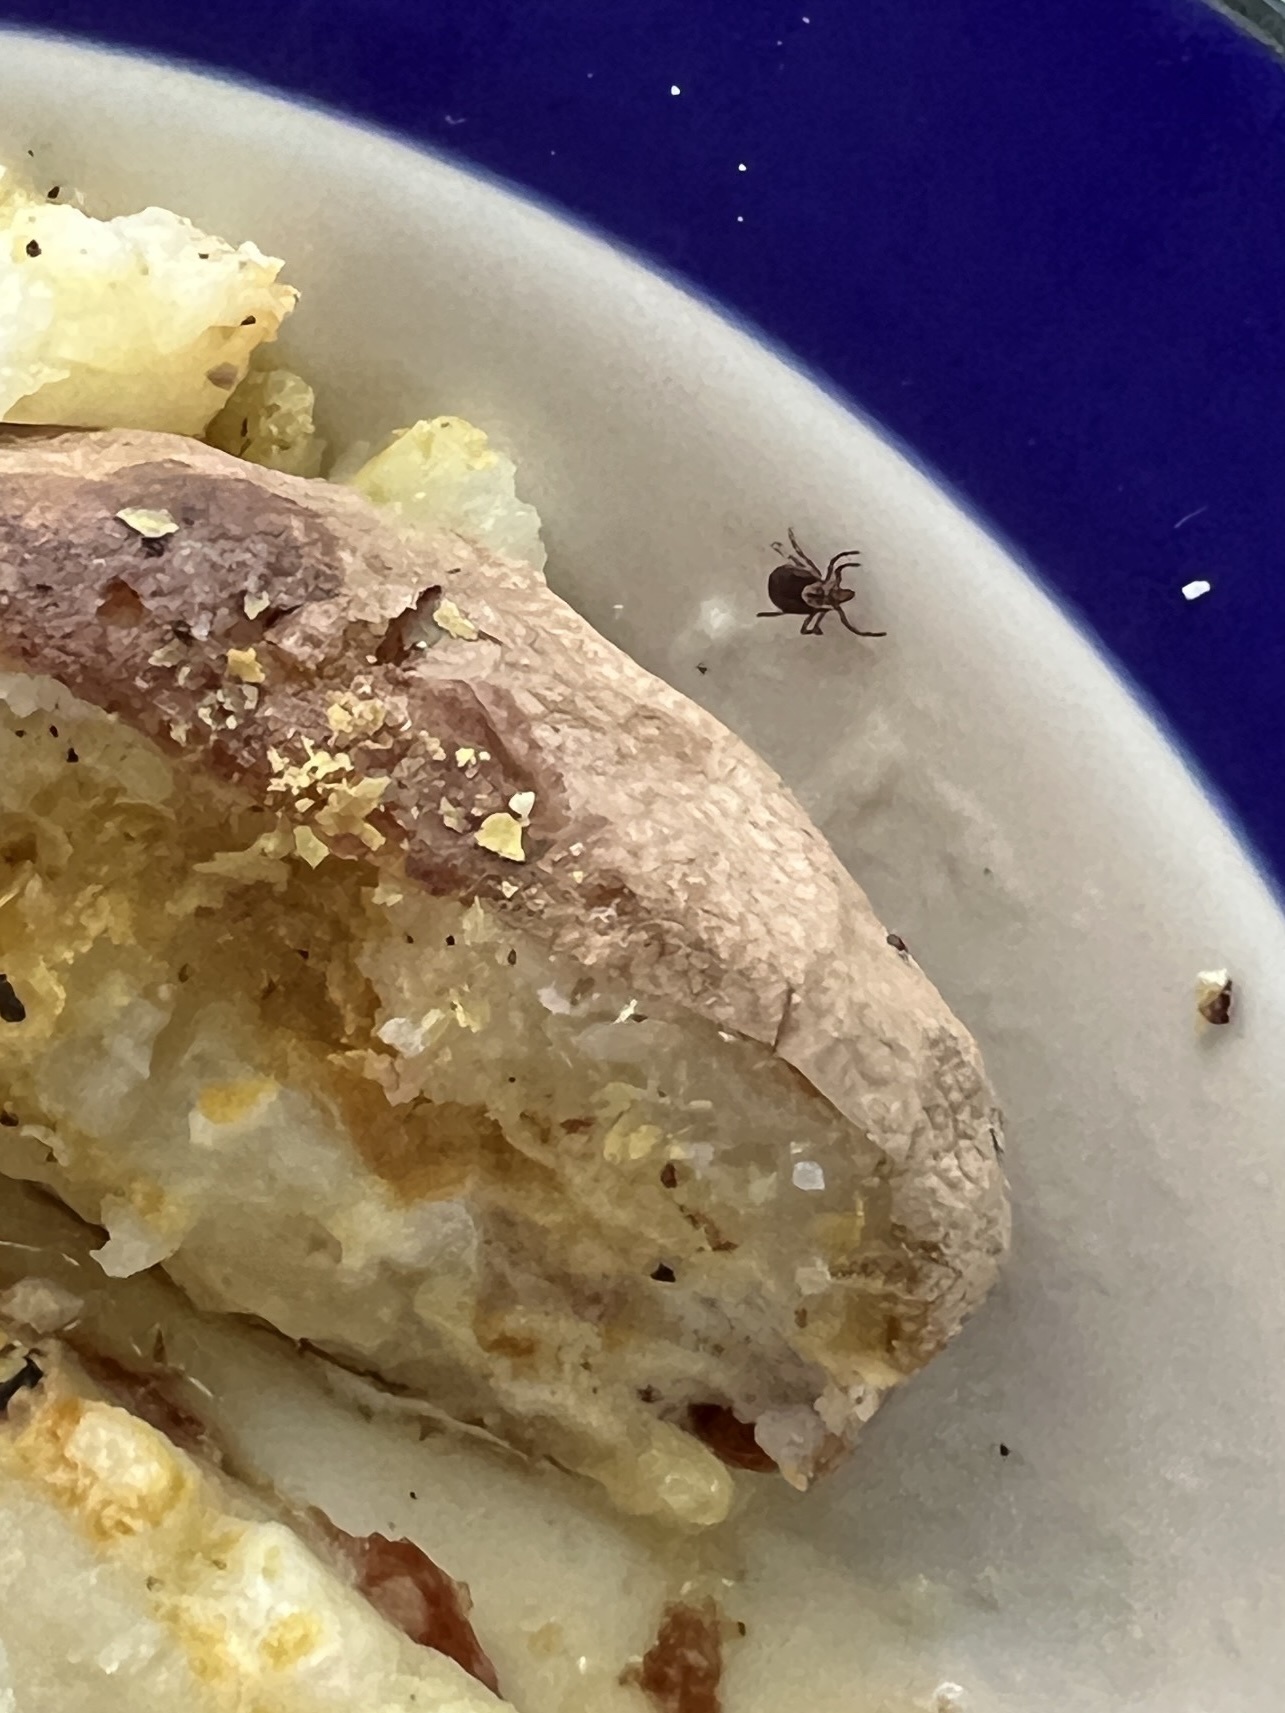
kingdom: Animalia
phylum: Arthropoda
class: Arachnida
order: Ixodida
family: Ixodidae
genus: Dermacentor
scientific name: Dermacentor variabilis
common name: American dog tick
